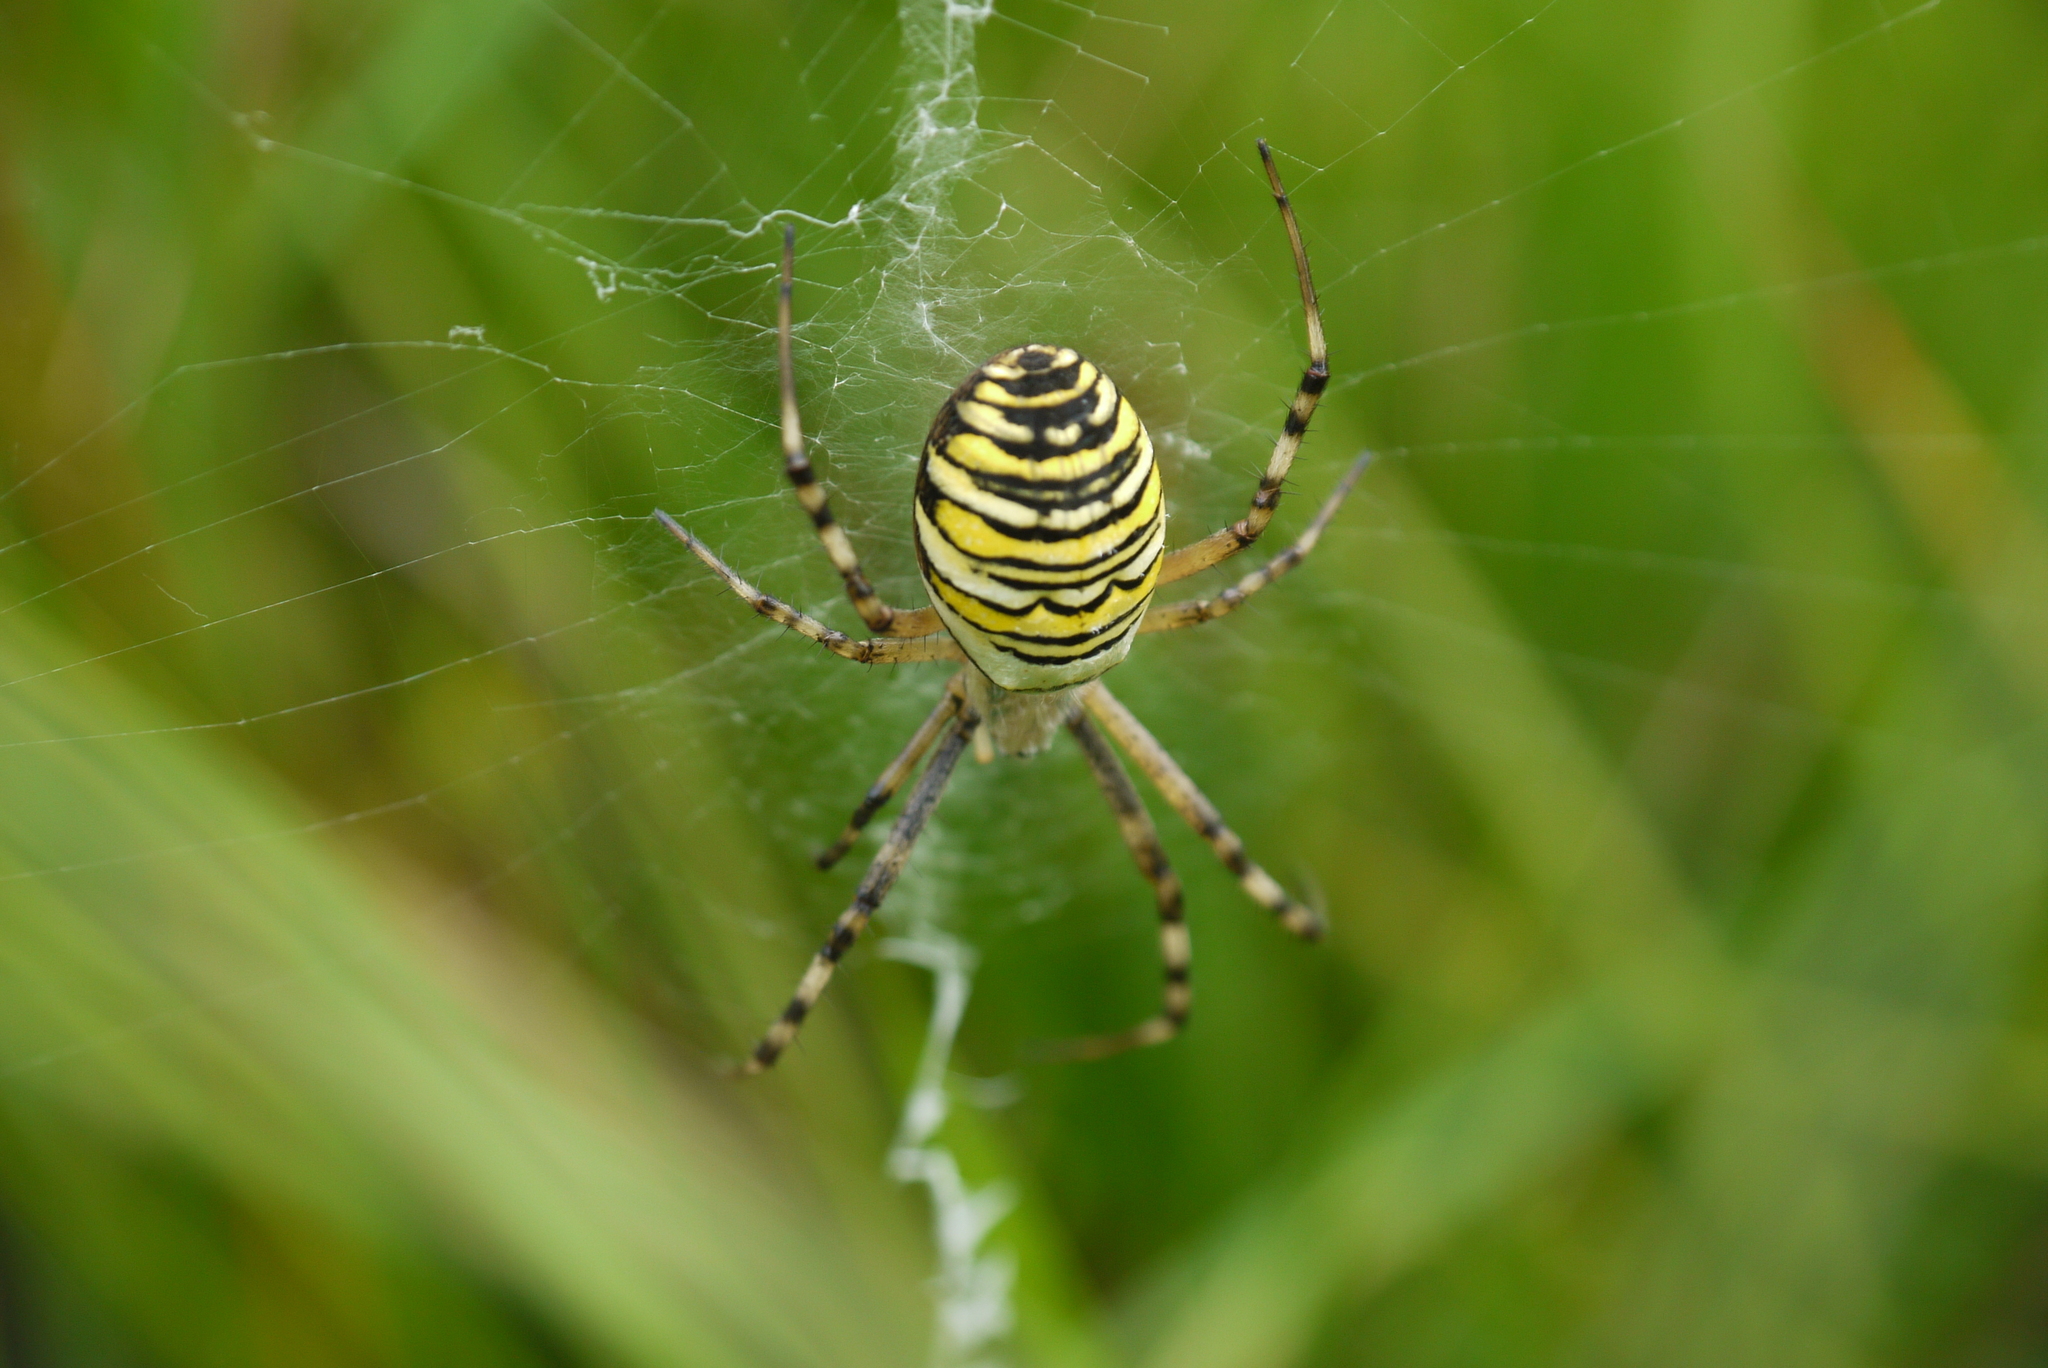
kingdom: Animalia
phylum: Arthropoda
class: Arachnida
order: Araneae
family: Araneidae
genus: Argiope
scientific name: Argiope bruennichi
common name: Wasp spider
